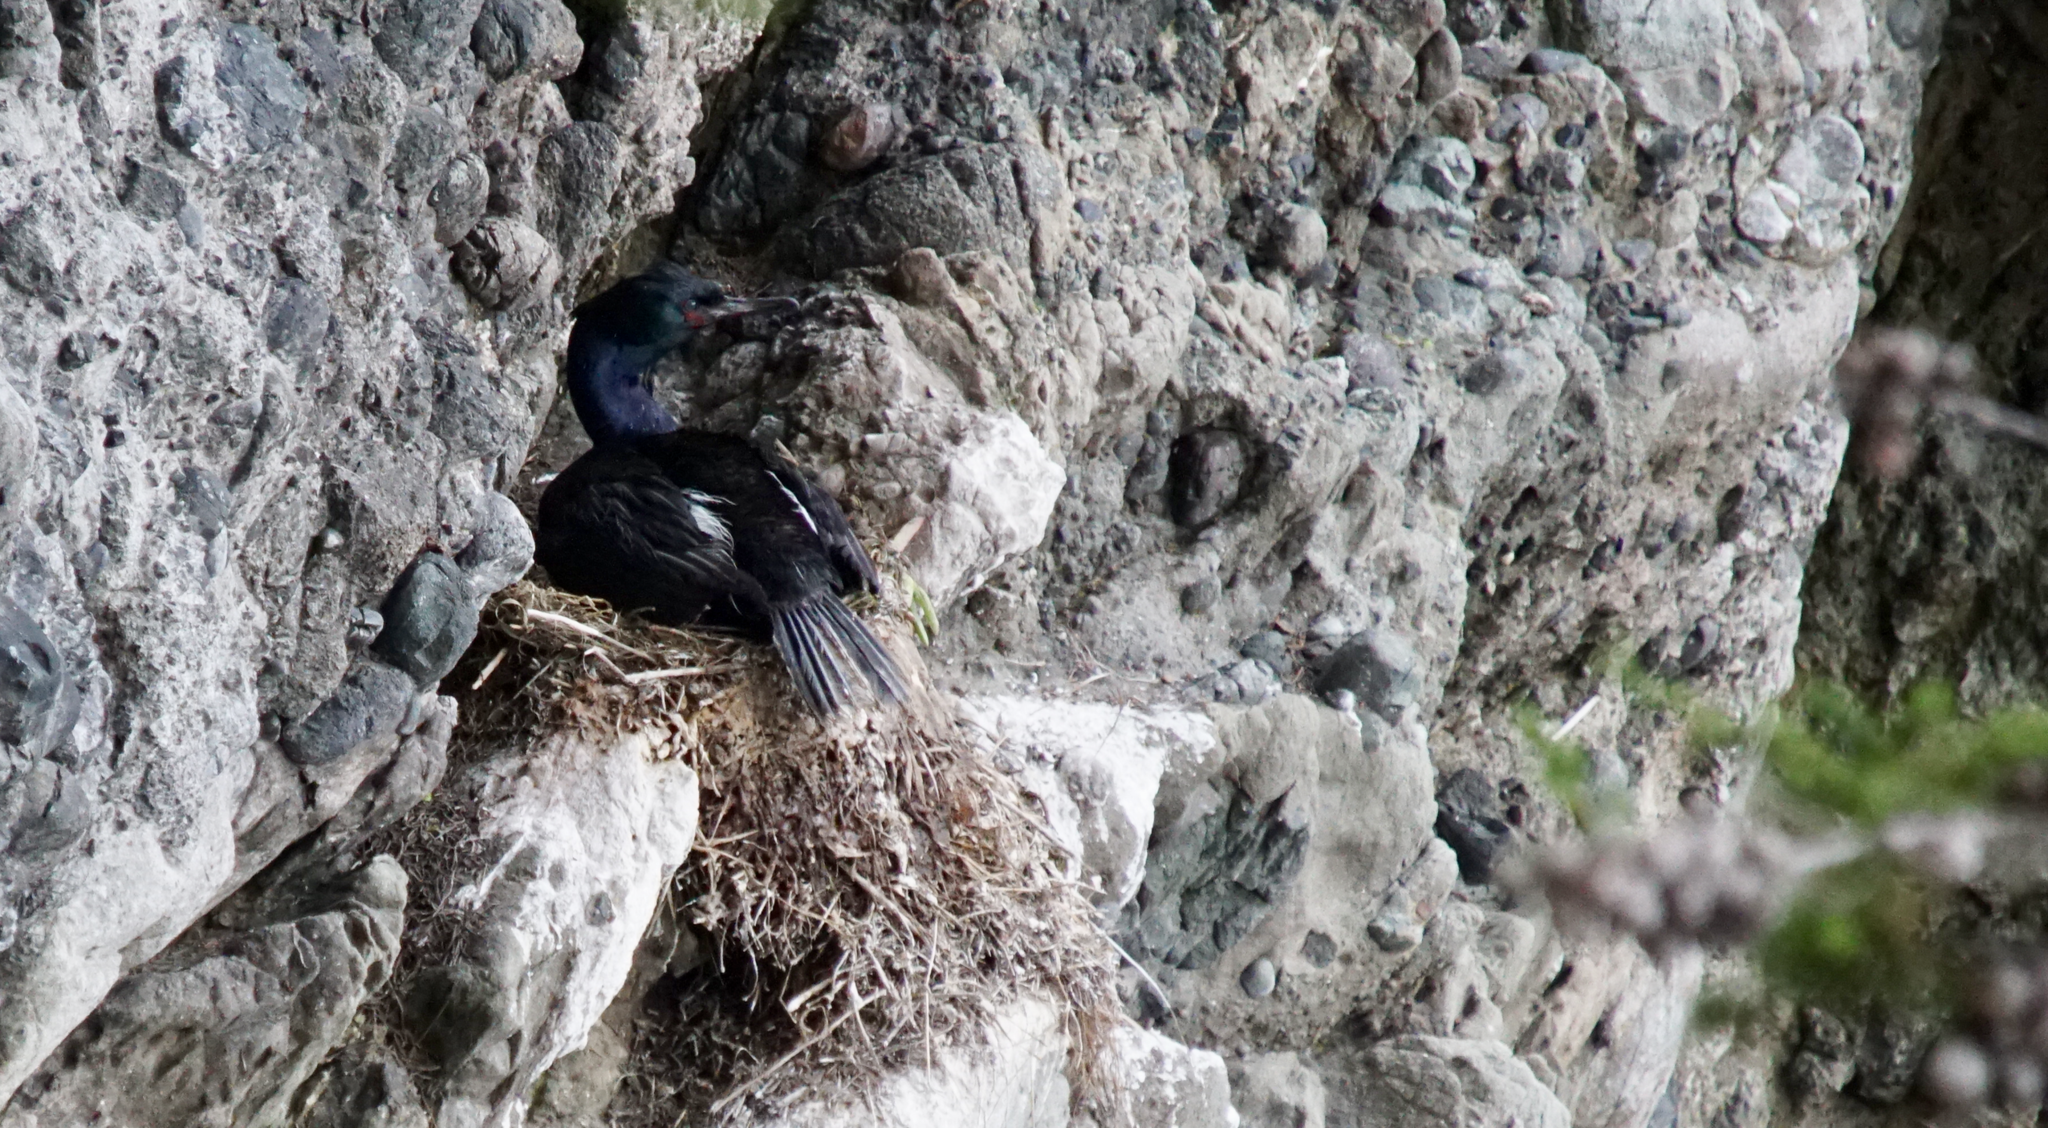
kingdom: Animalia
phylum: Chordata
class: Aves
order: Suliformes
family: Phalacrocoracidae
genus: Phalacrocorax
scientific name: Phalacrocorax pelagicus
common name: Pelagic cormorant
